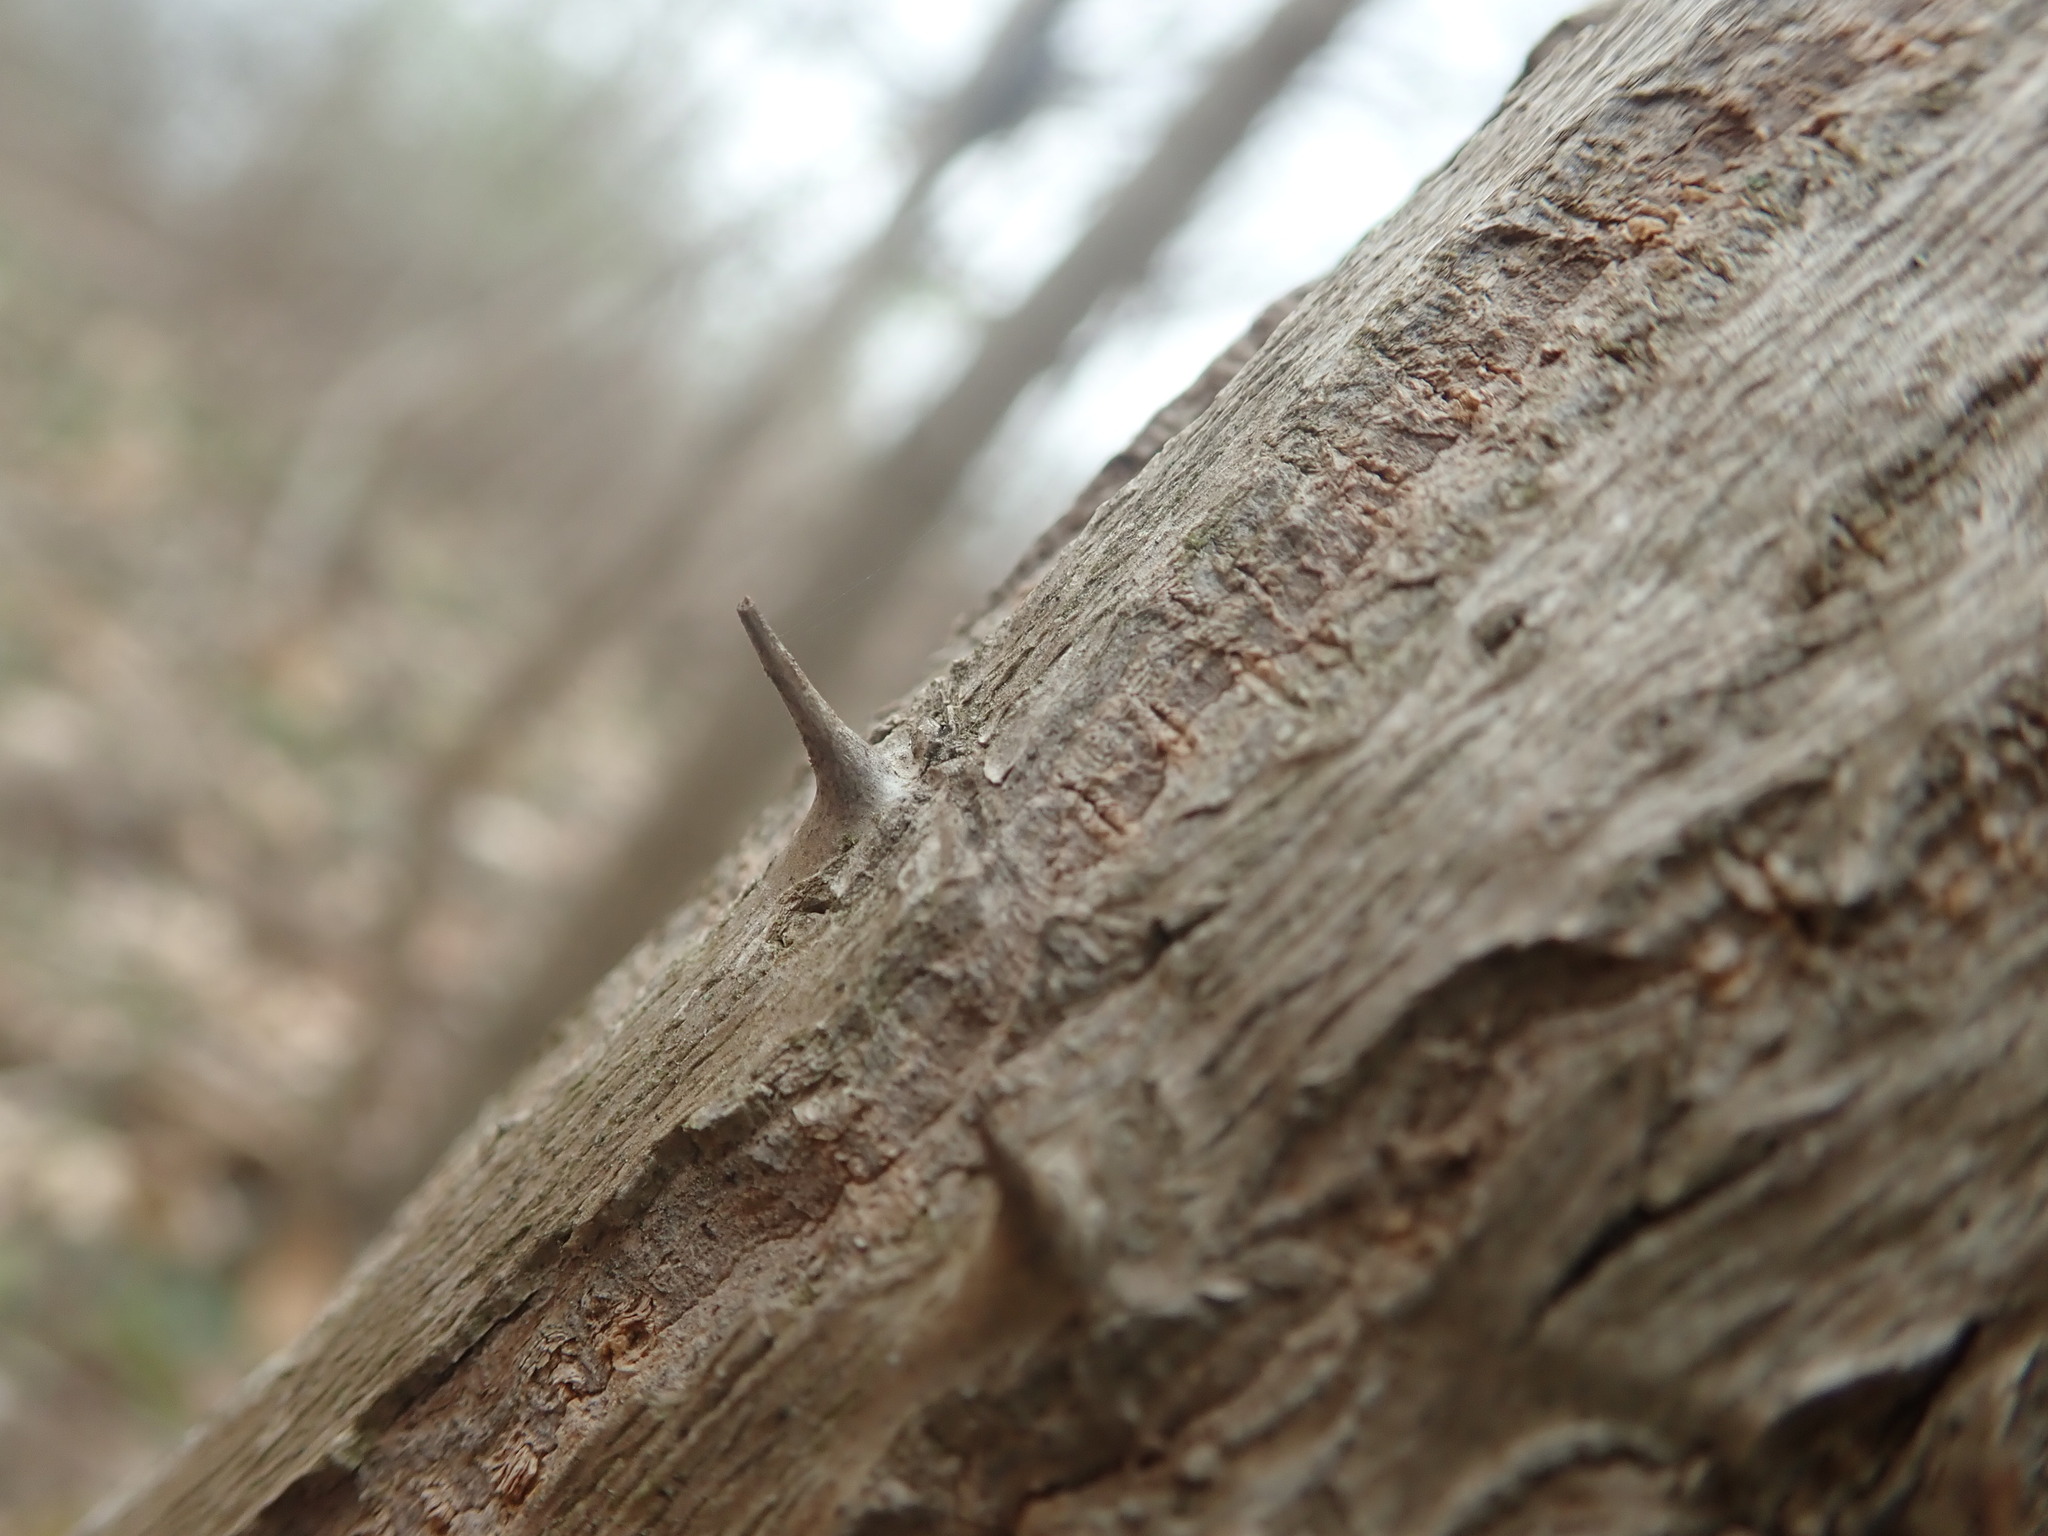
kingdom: Plantae
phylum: Tracheophyta
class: Magnoliopsida
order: Apiales
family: Araliaceae
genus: Aralia
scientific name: Aralia spinosa
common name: Hercules'-club
